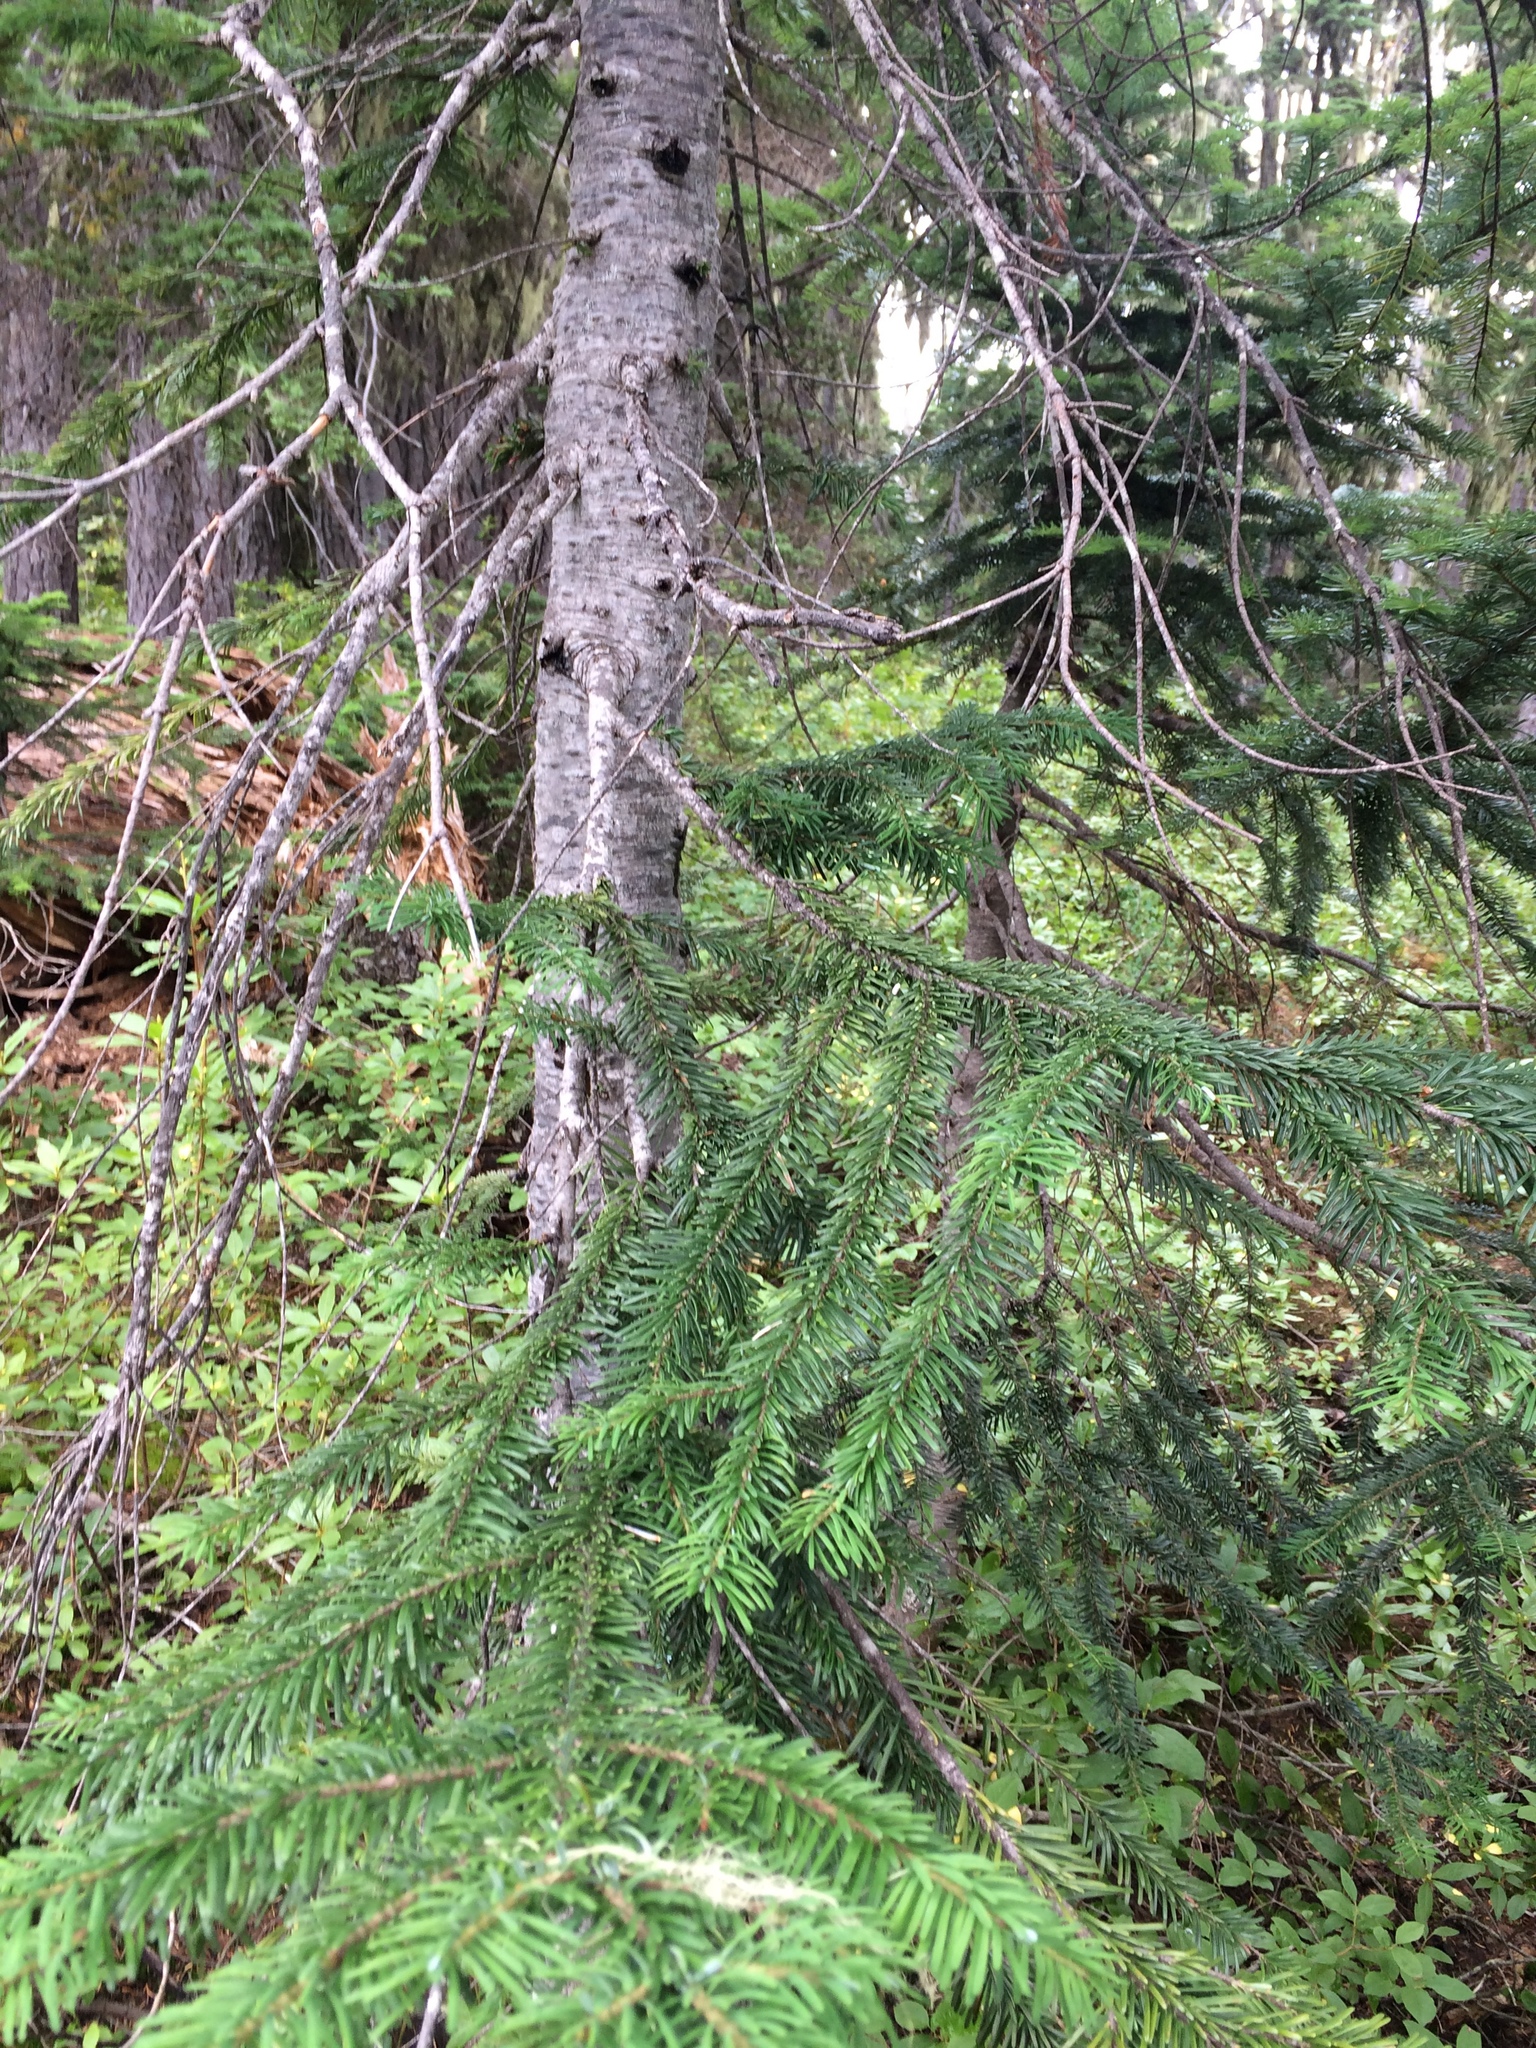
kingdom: Plantae
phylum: Tracheophyta
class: Pinopsida
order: Pinales
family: Pinaceae
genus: Abies
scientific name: Abies lasiocarpa
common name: Subalpine fir
